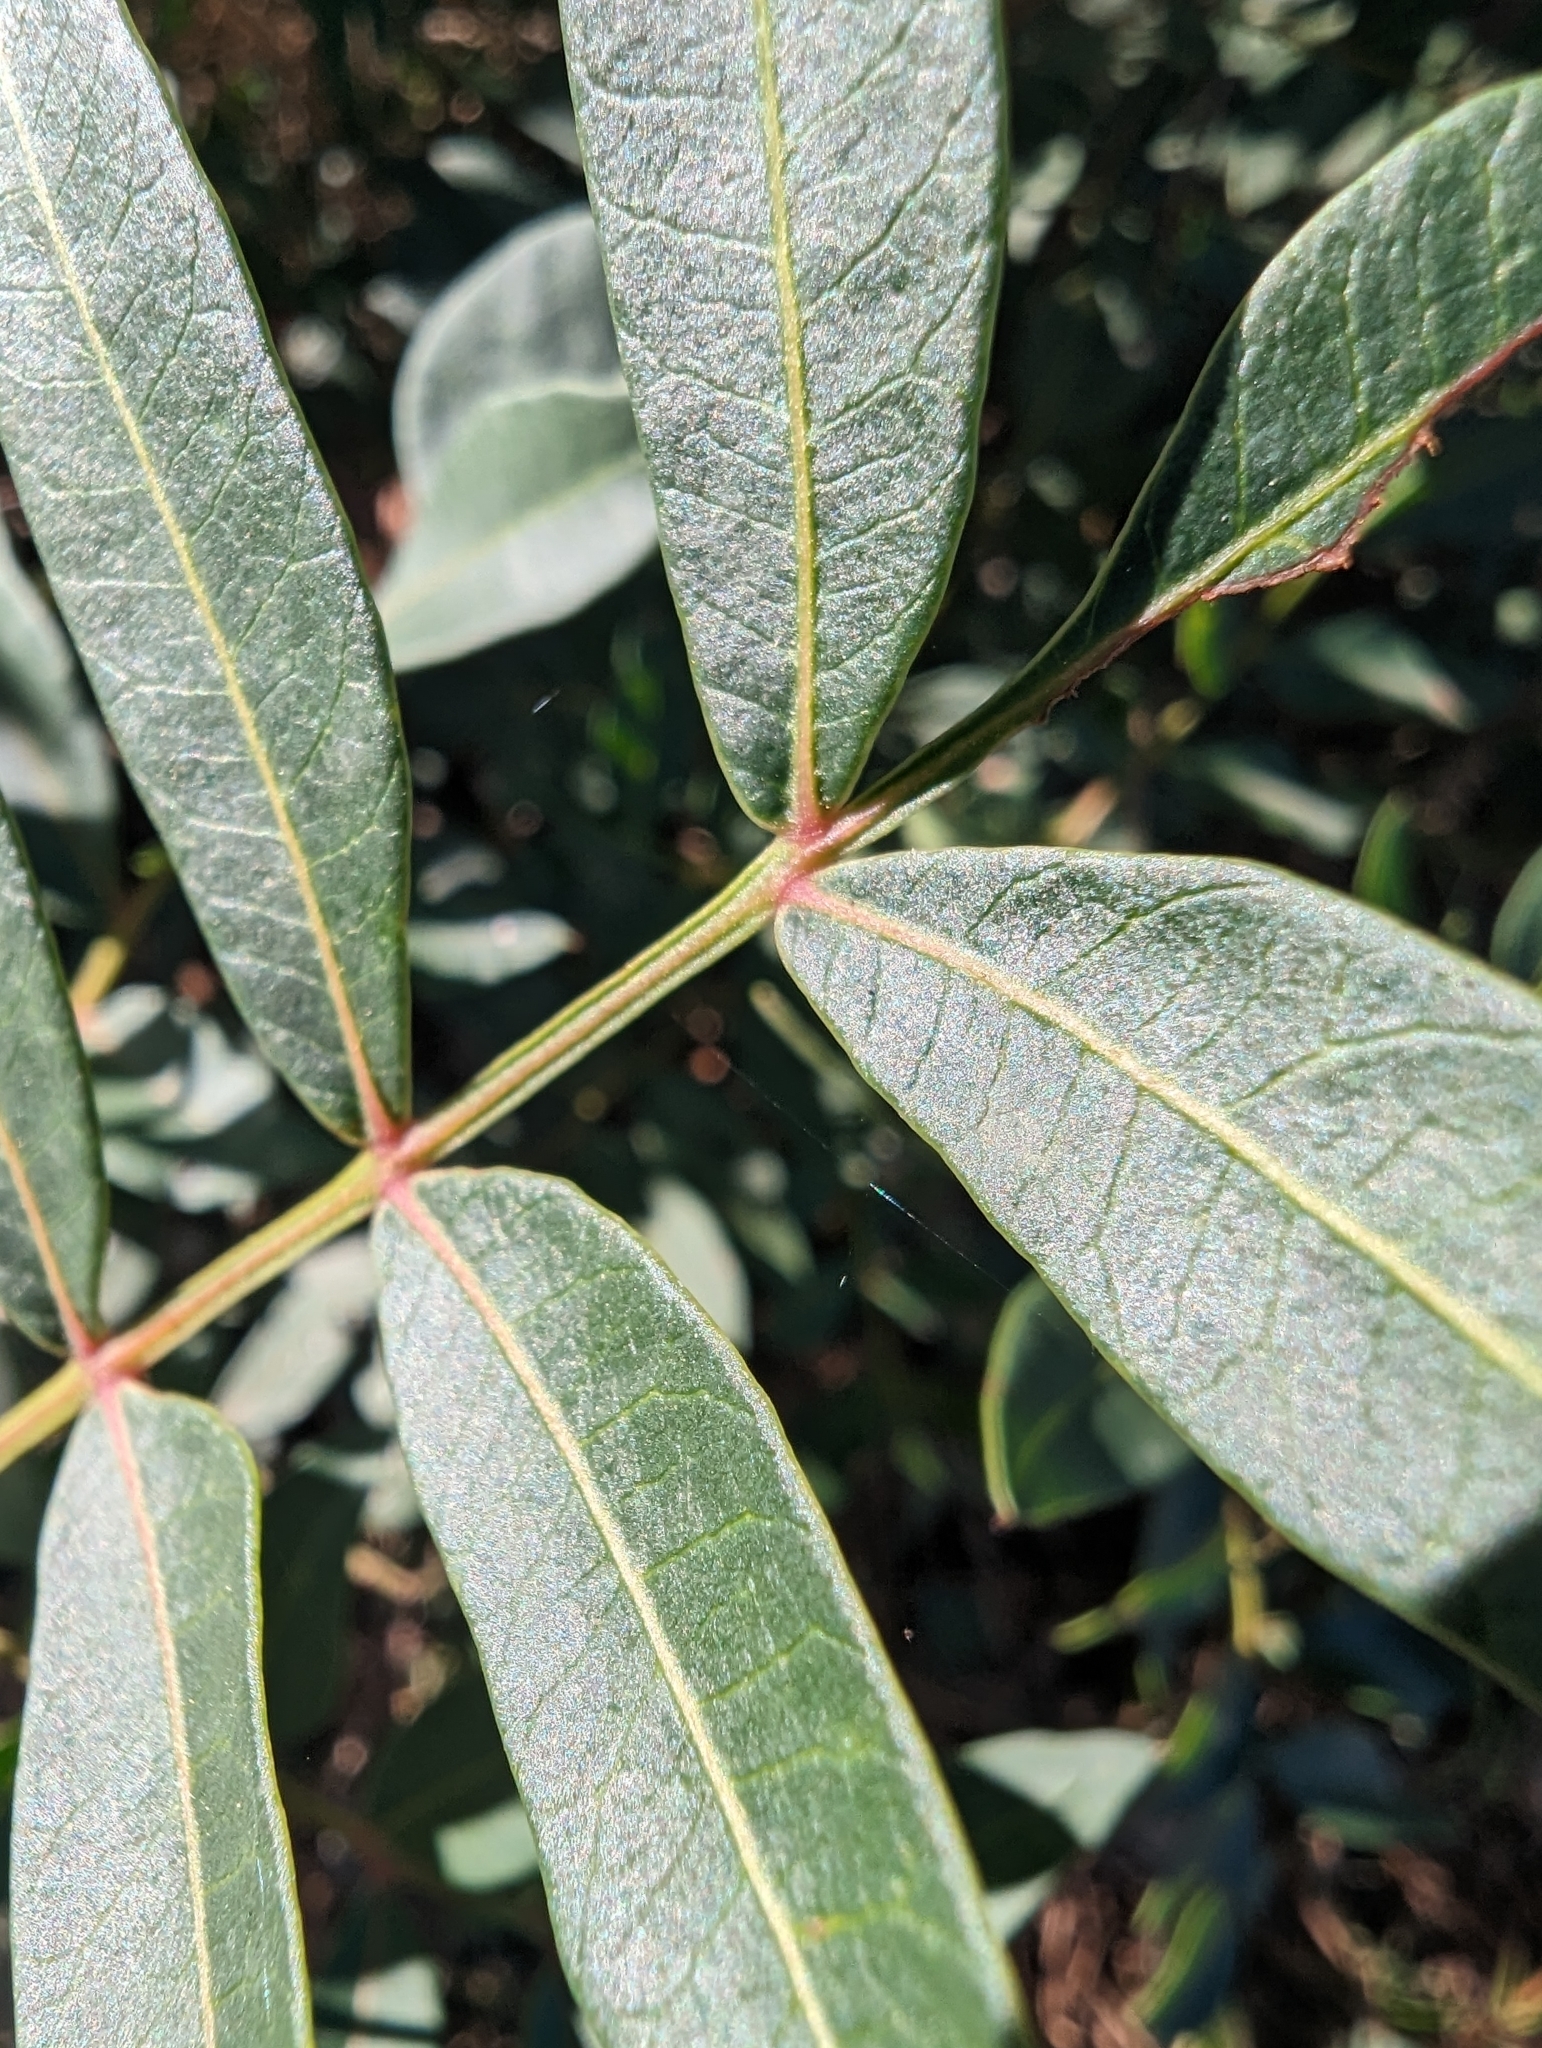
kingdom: Plantae
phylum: Tracheophyta
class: Magnoliopsida
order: Sapindales
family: Anacardiaceae
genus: Pistacia
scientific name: Pistacia saportae
